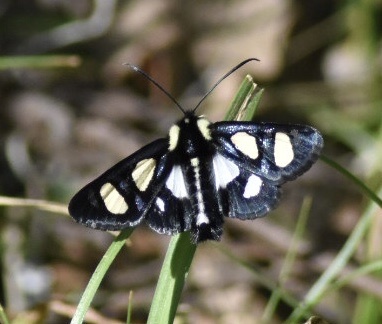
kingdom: Animalia
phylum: Arthropoda
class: Insecta
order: Lepidoptera
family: Noctuidae
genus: Alypia
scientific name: Alypia octomaculata
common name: Eight-spotted forester
